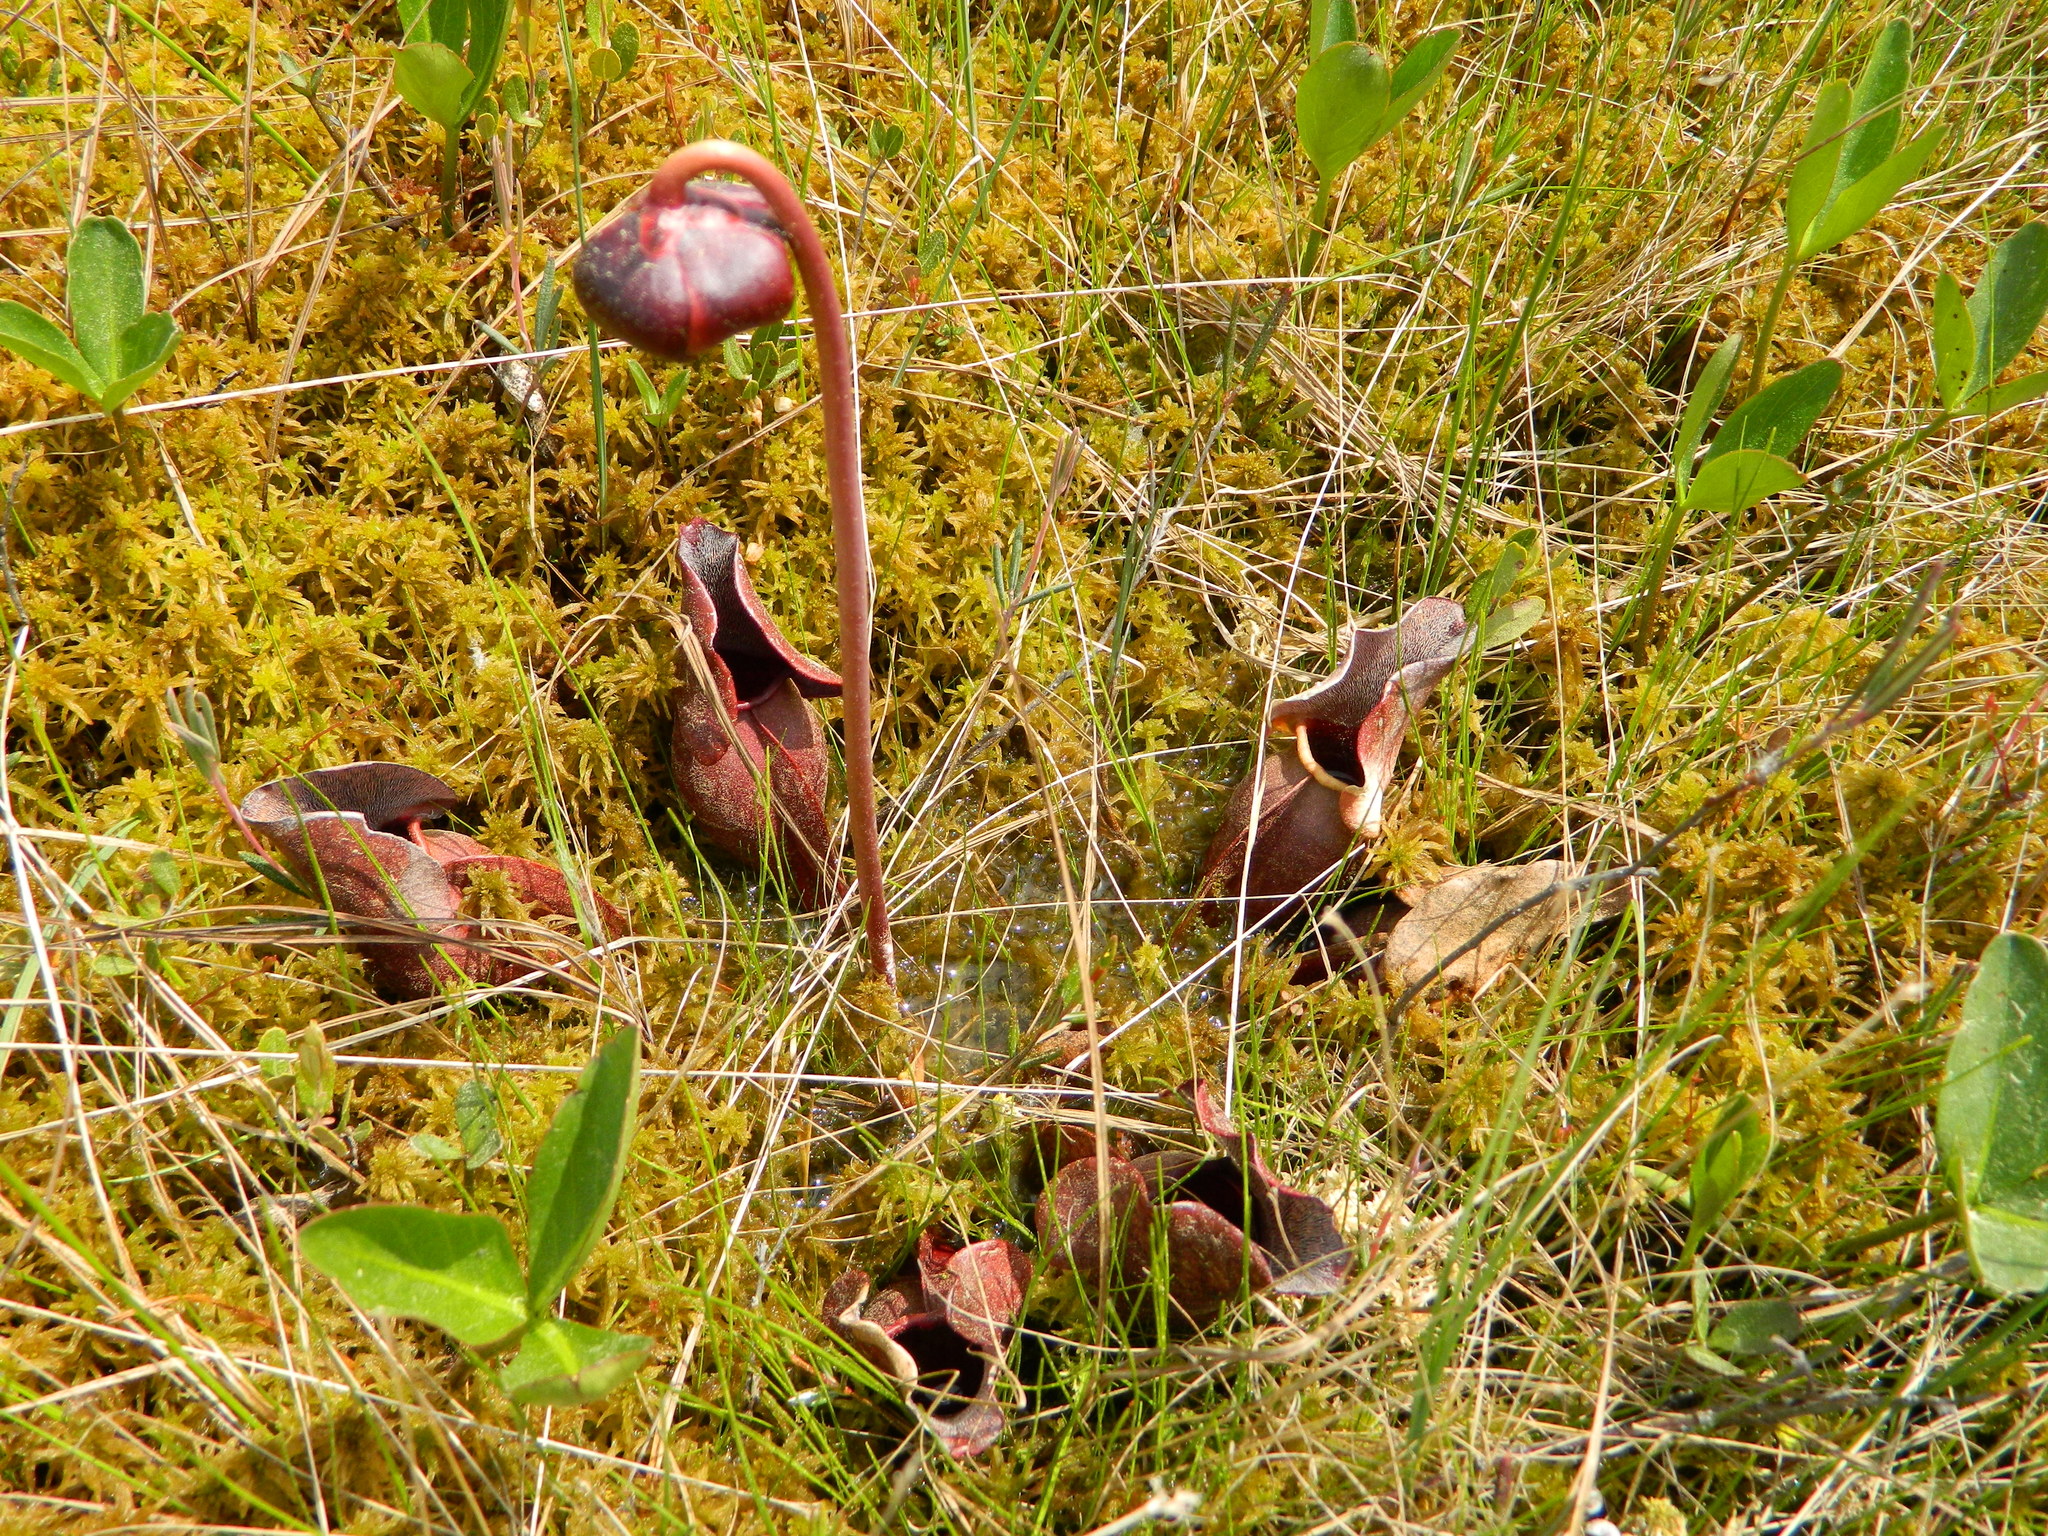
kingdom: Plantae
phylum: Tracheophyta
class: Magnoliopsida
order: Ericales
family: Sarraceniaceae
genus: Sarracenia
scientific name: Sarracenia purpurea
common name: Pitcherplant
